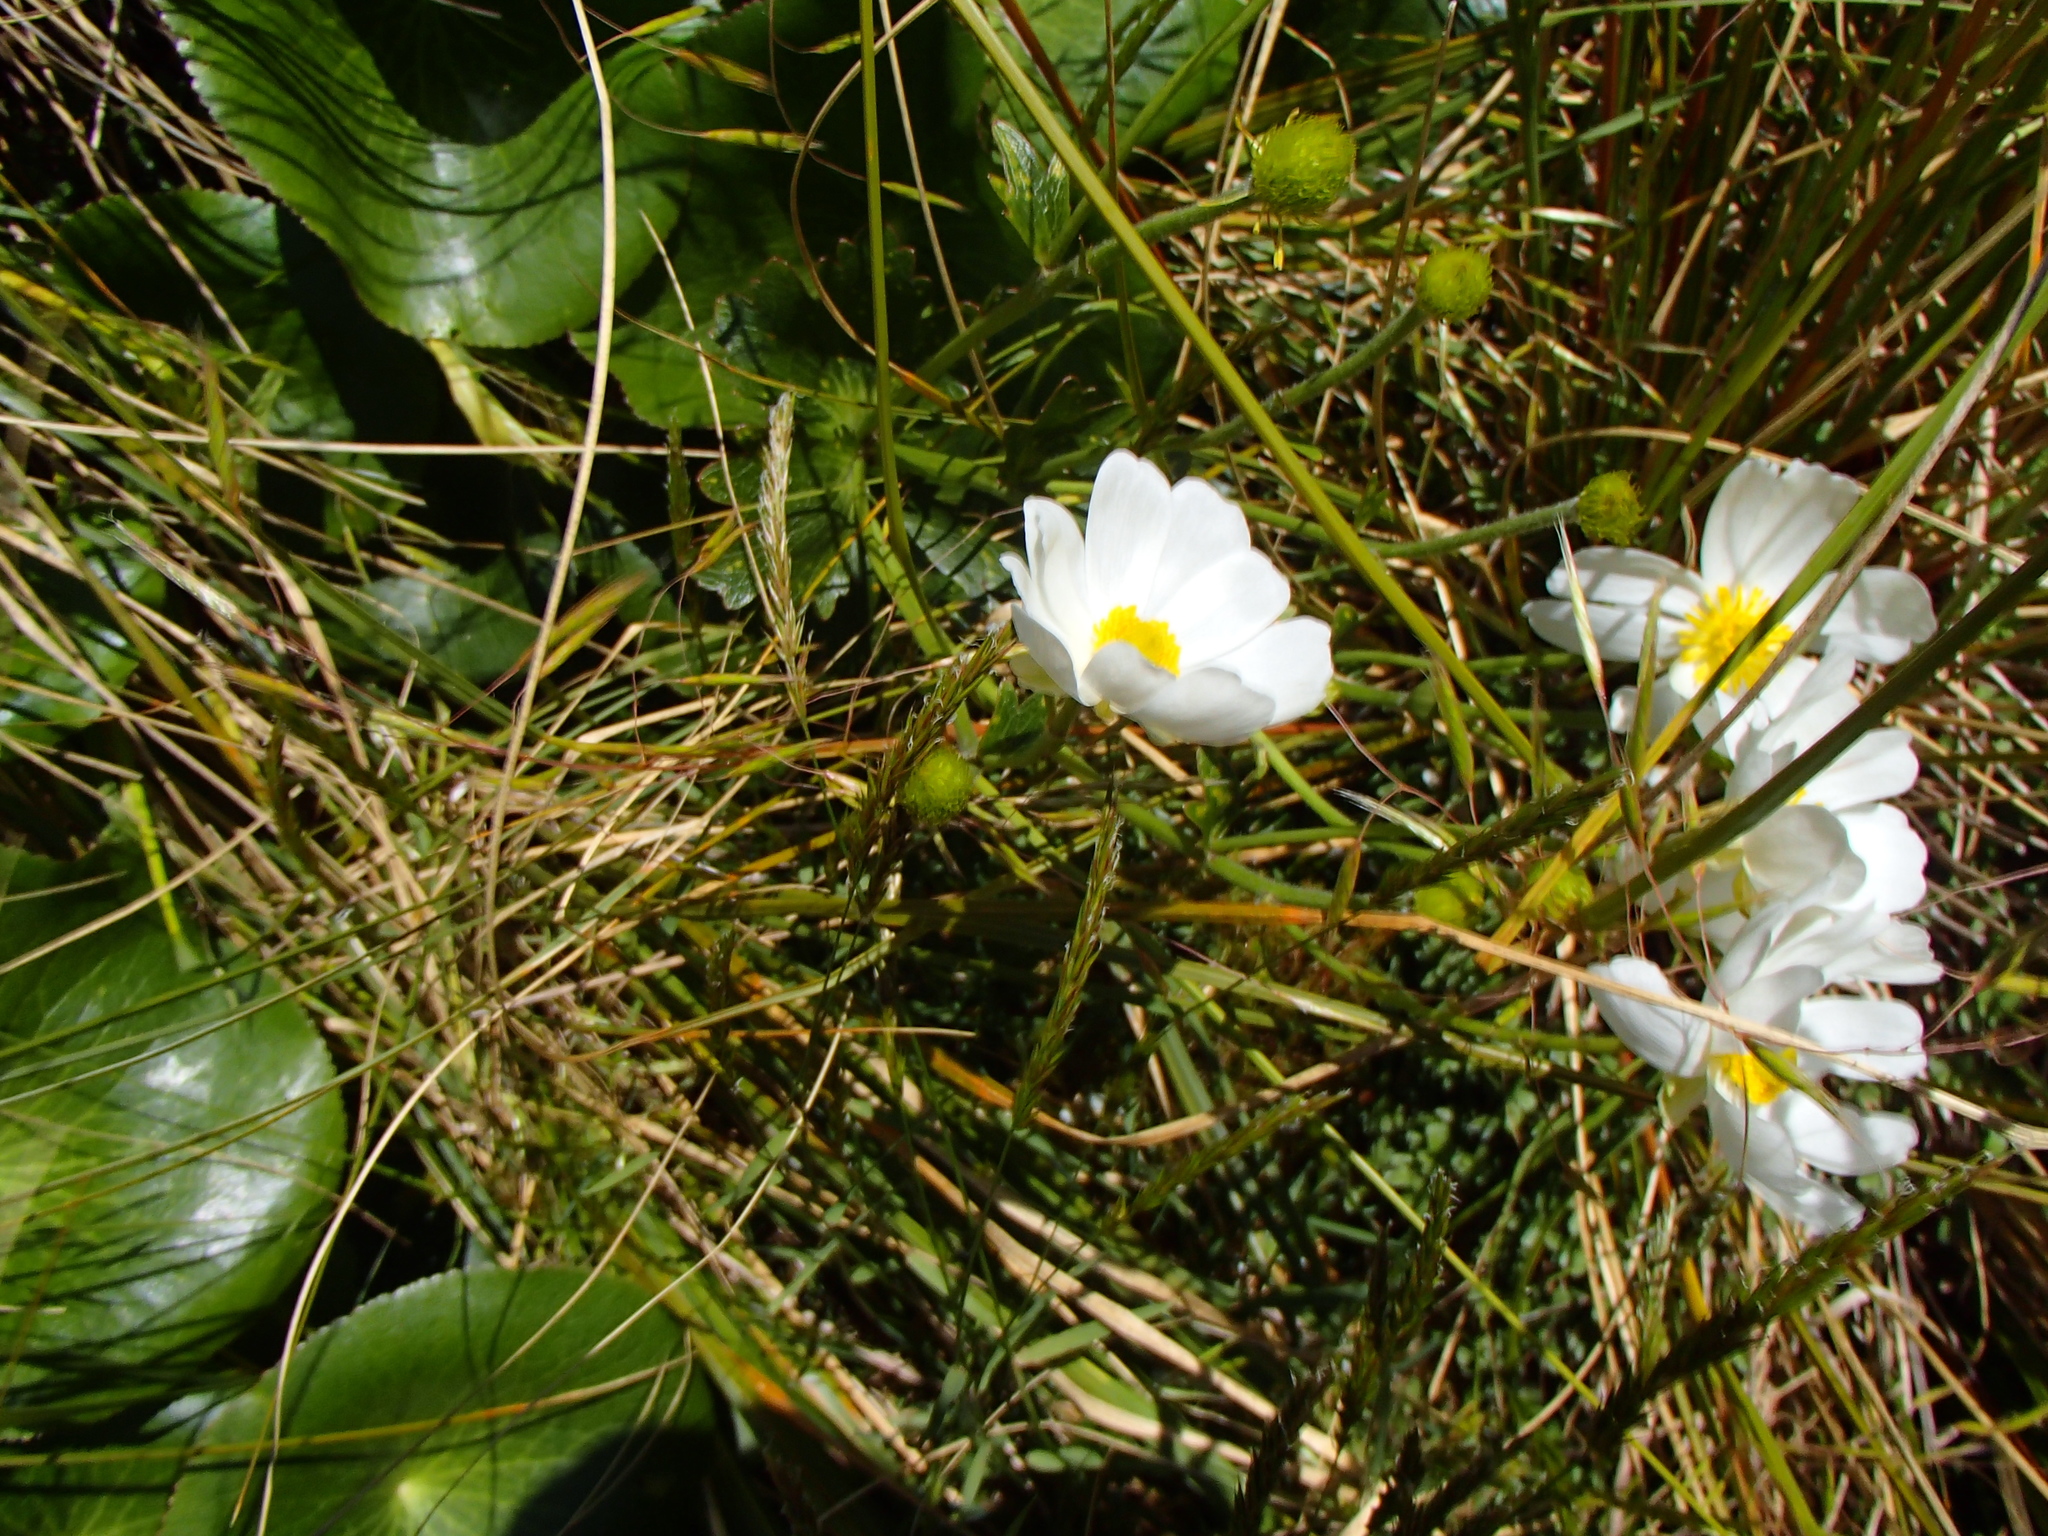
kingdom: Plantae
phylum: Tracheophyta
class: Magnoliopsida
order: Ranunculales
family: Ranunculaceae
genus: Ranunculus
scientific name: Ranunculus lyallii
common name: Mountain-lily
